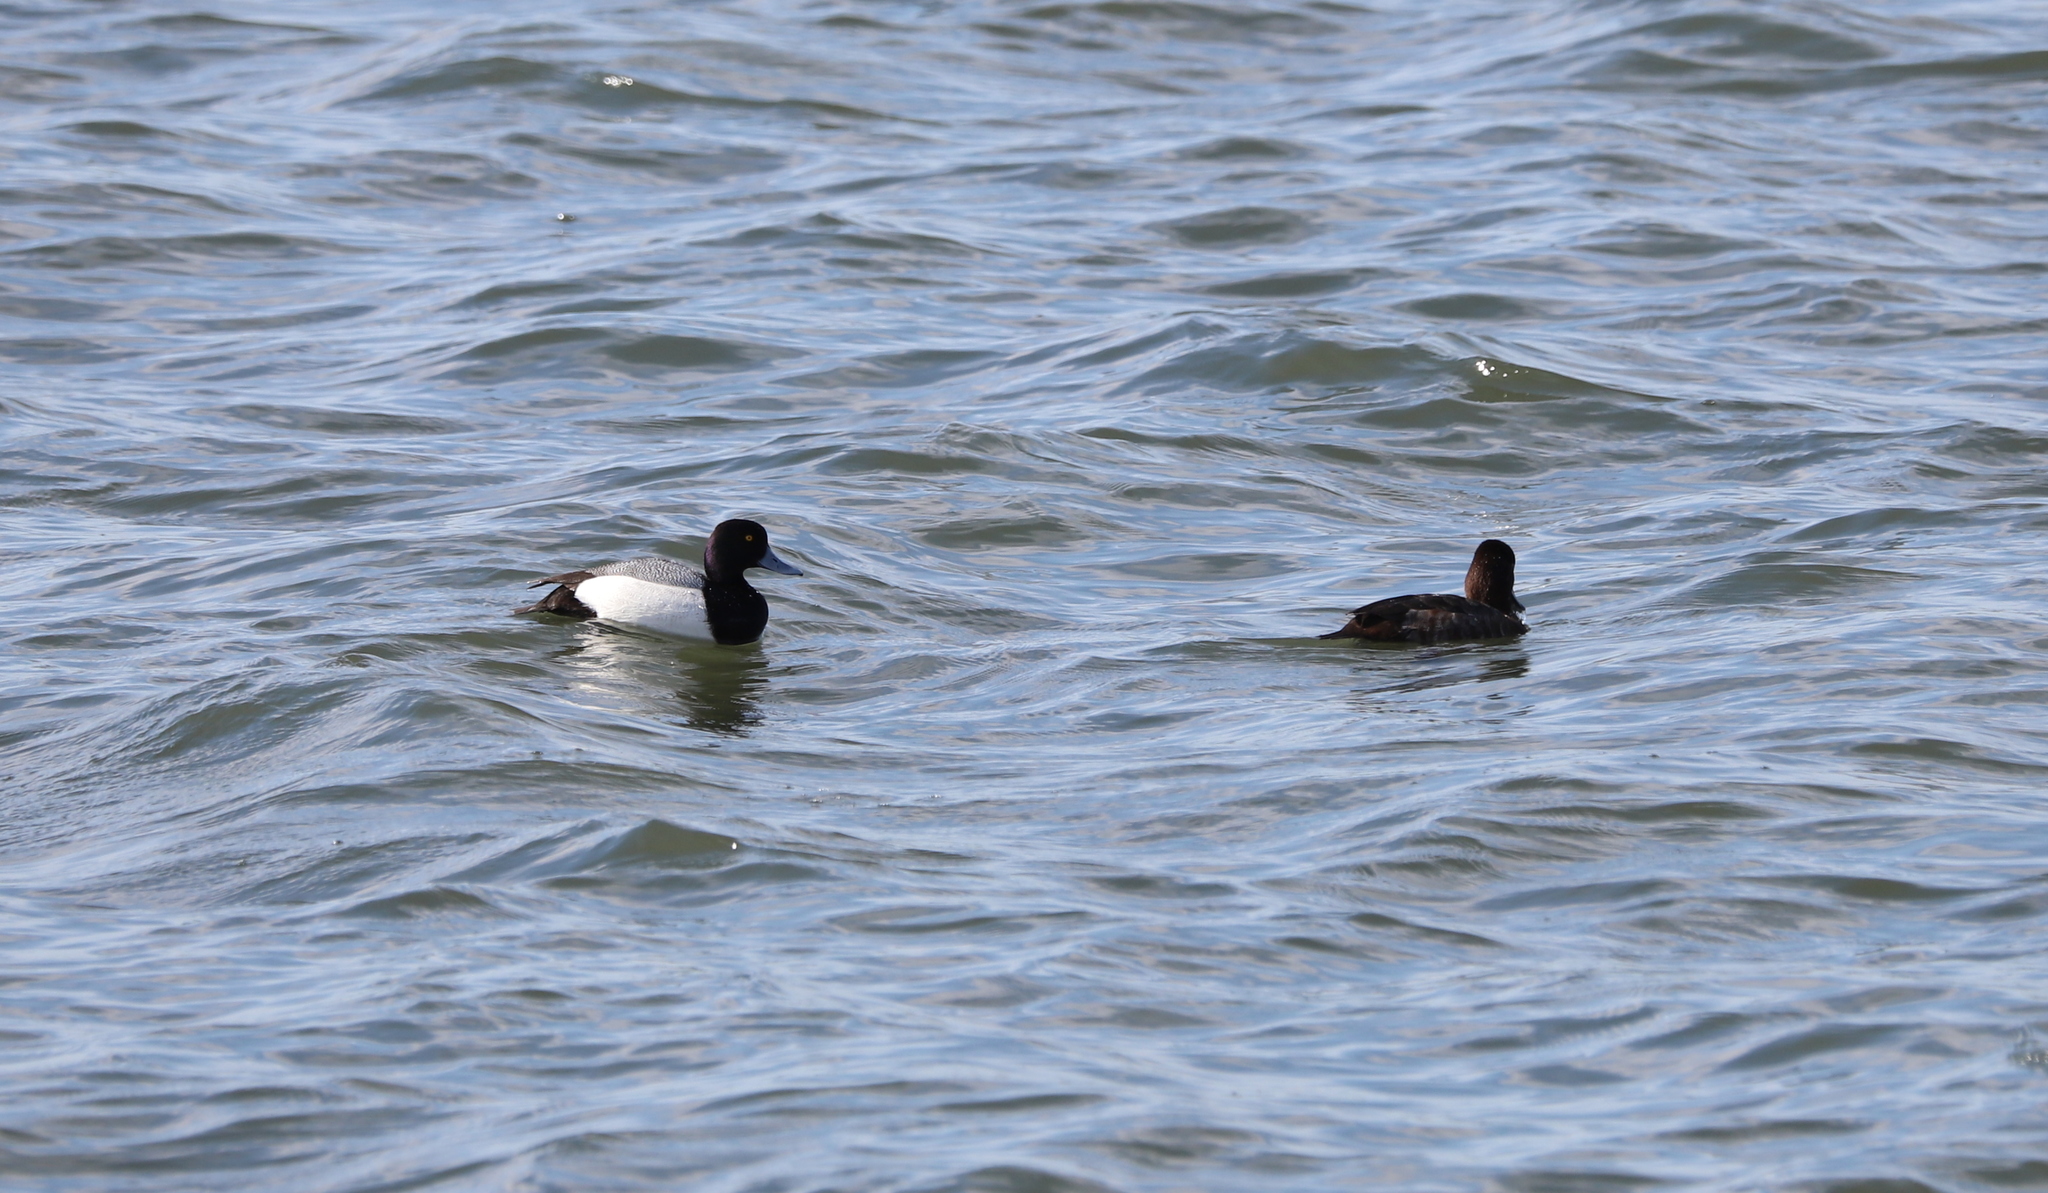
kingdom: Animalia
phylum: Chordata
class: Aves
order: Anseriformes
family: Anatidae
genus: Aythya
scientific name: Aythya marila
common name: Greater scaup
